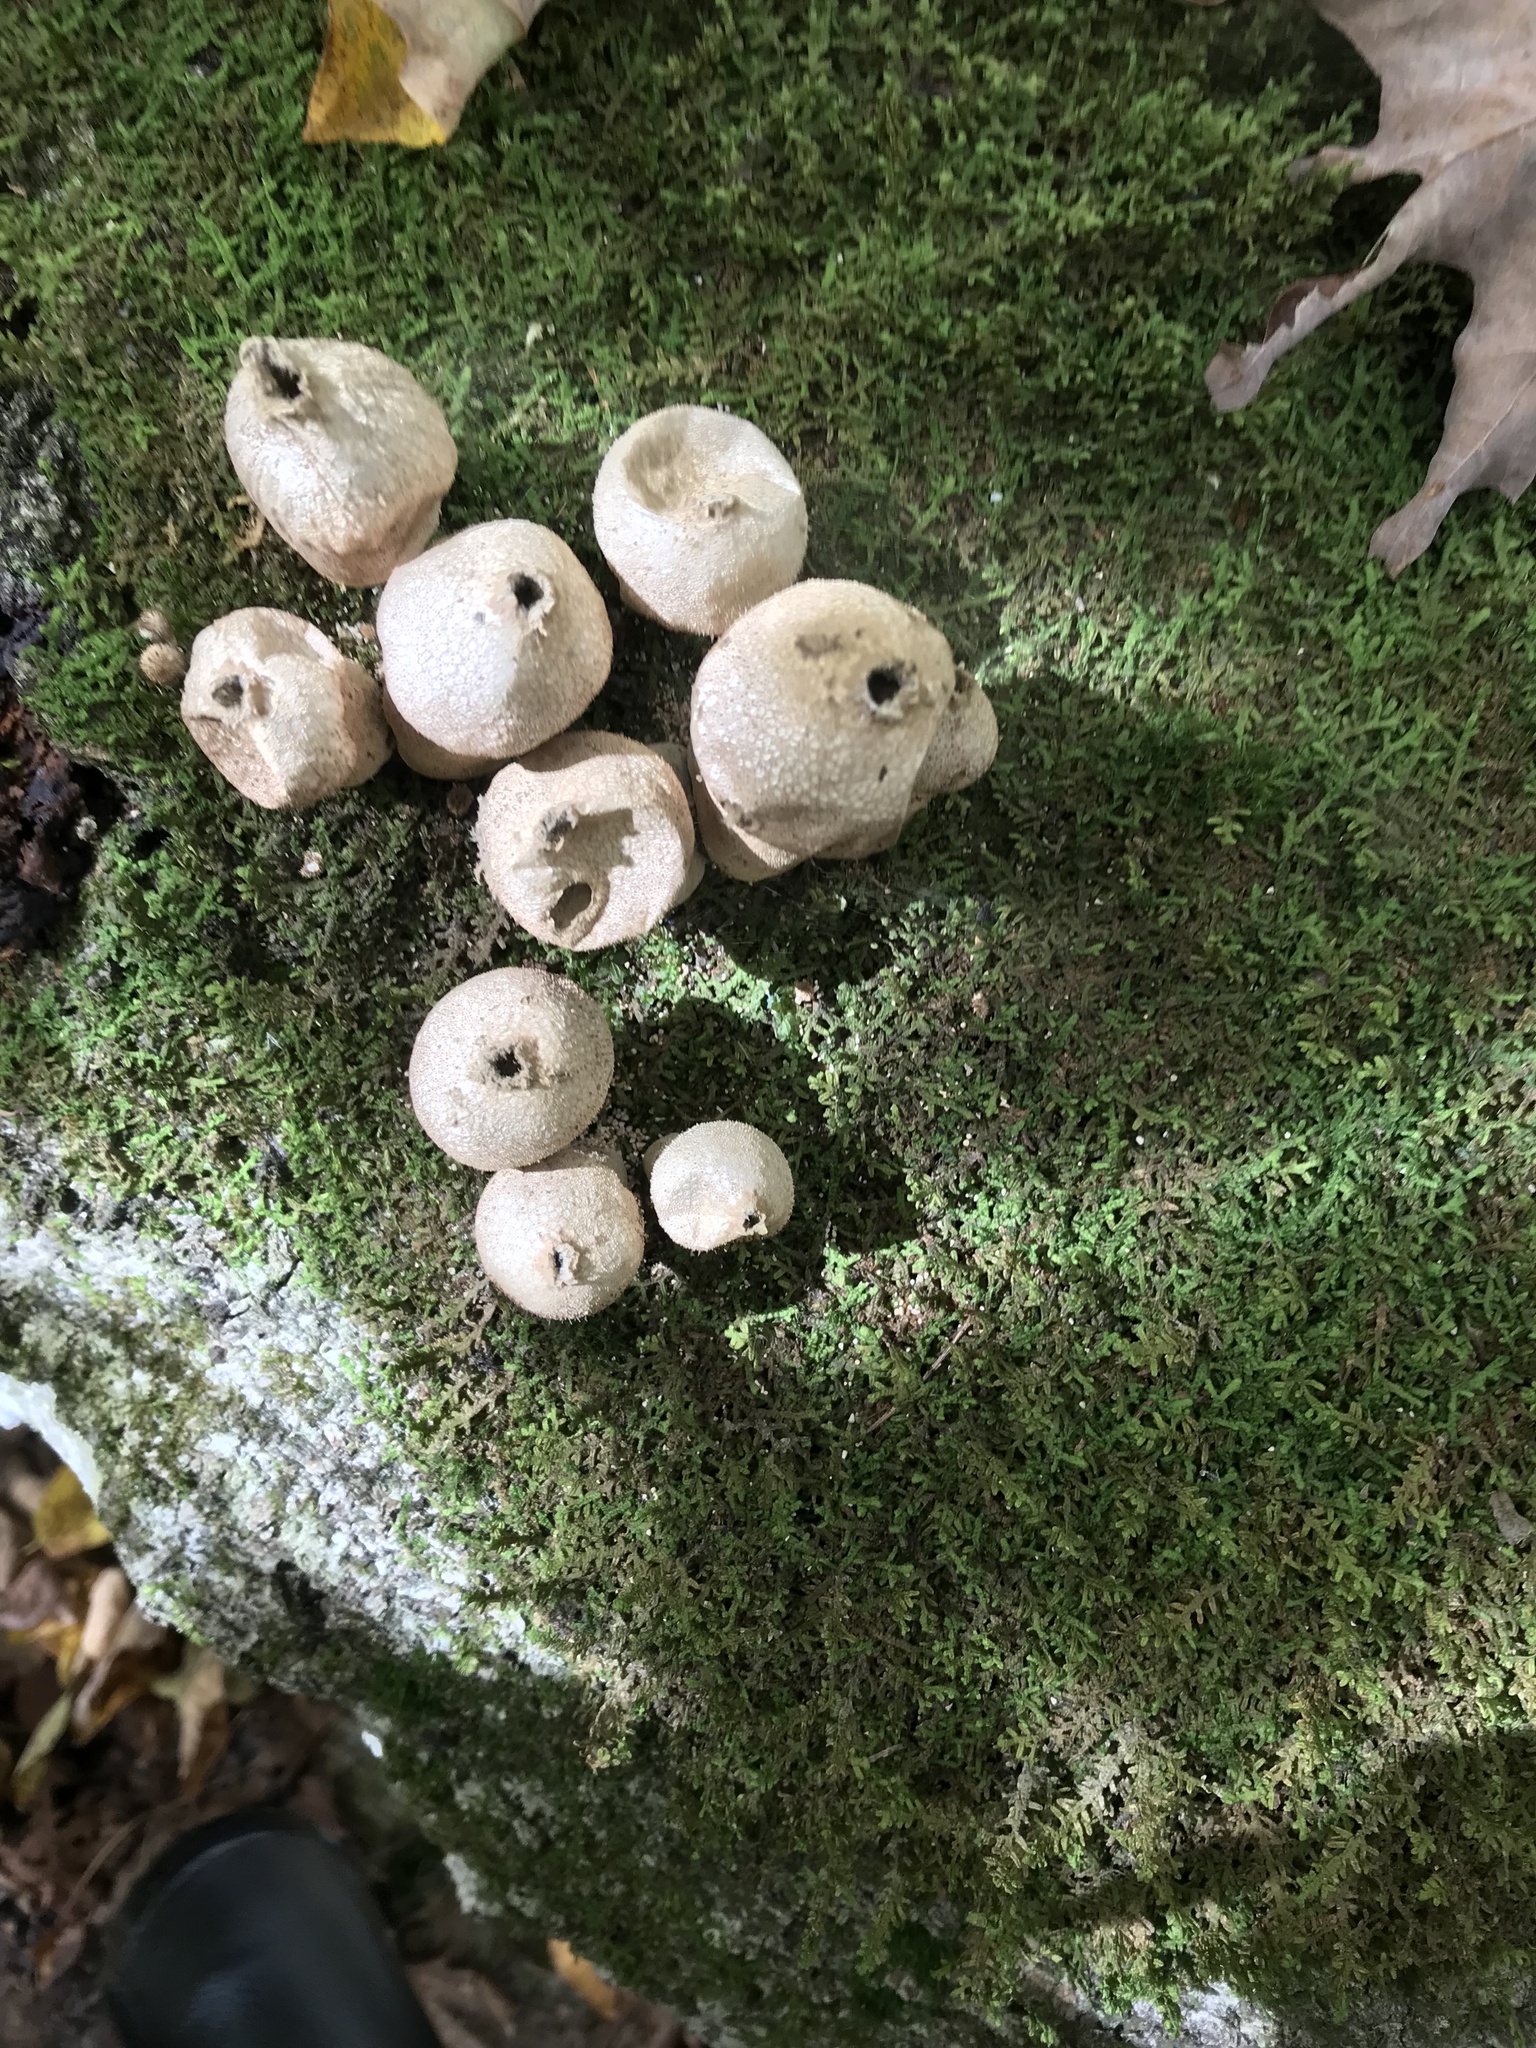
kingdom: Fungi
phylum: Basidiomycota
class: Agaricomycetes
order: Agaricales
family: Lycoperdaceae
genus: Apioperdon
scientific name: Apioperdon pyriforme
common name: Pear-shaped puffball
